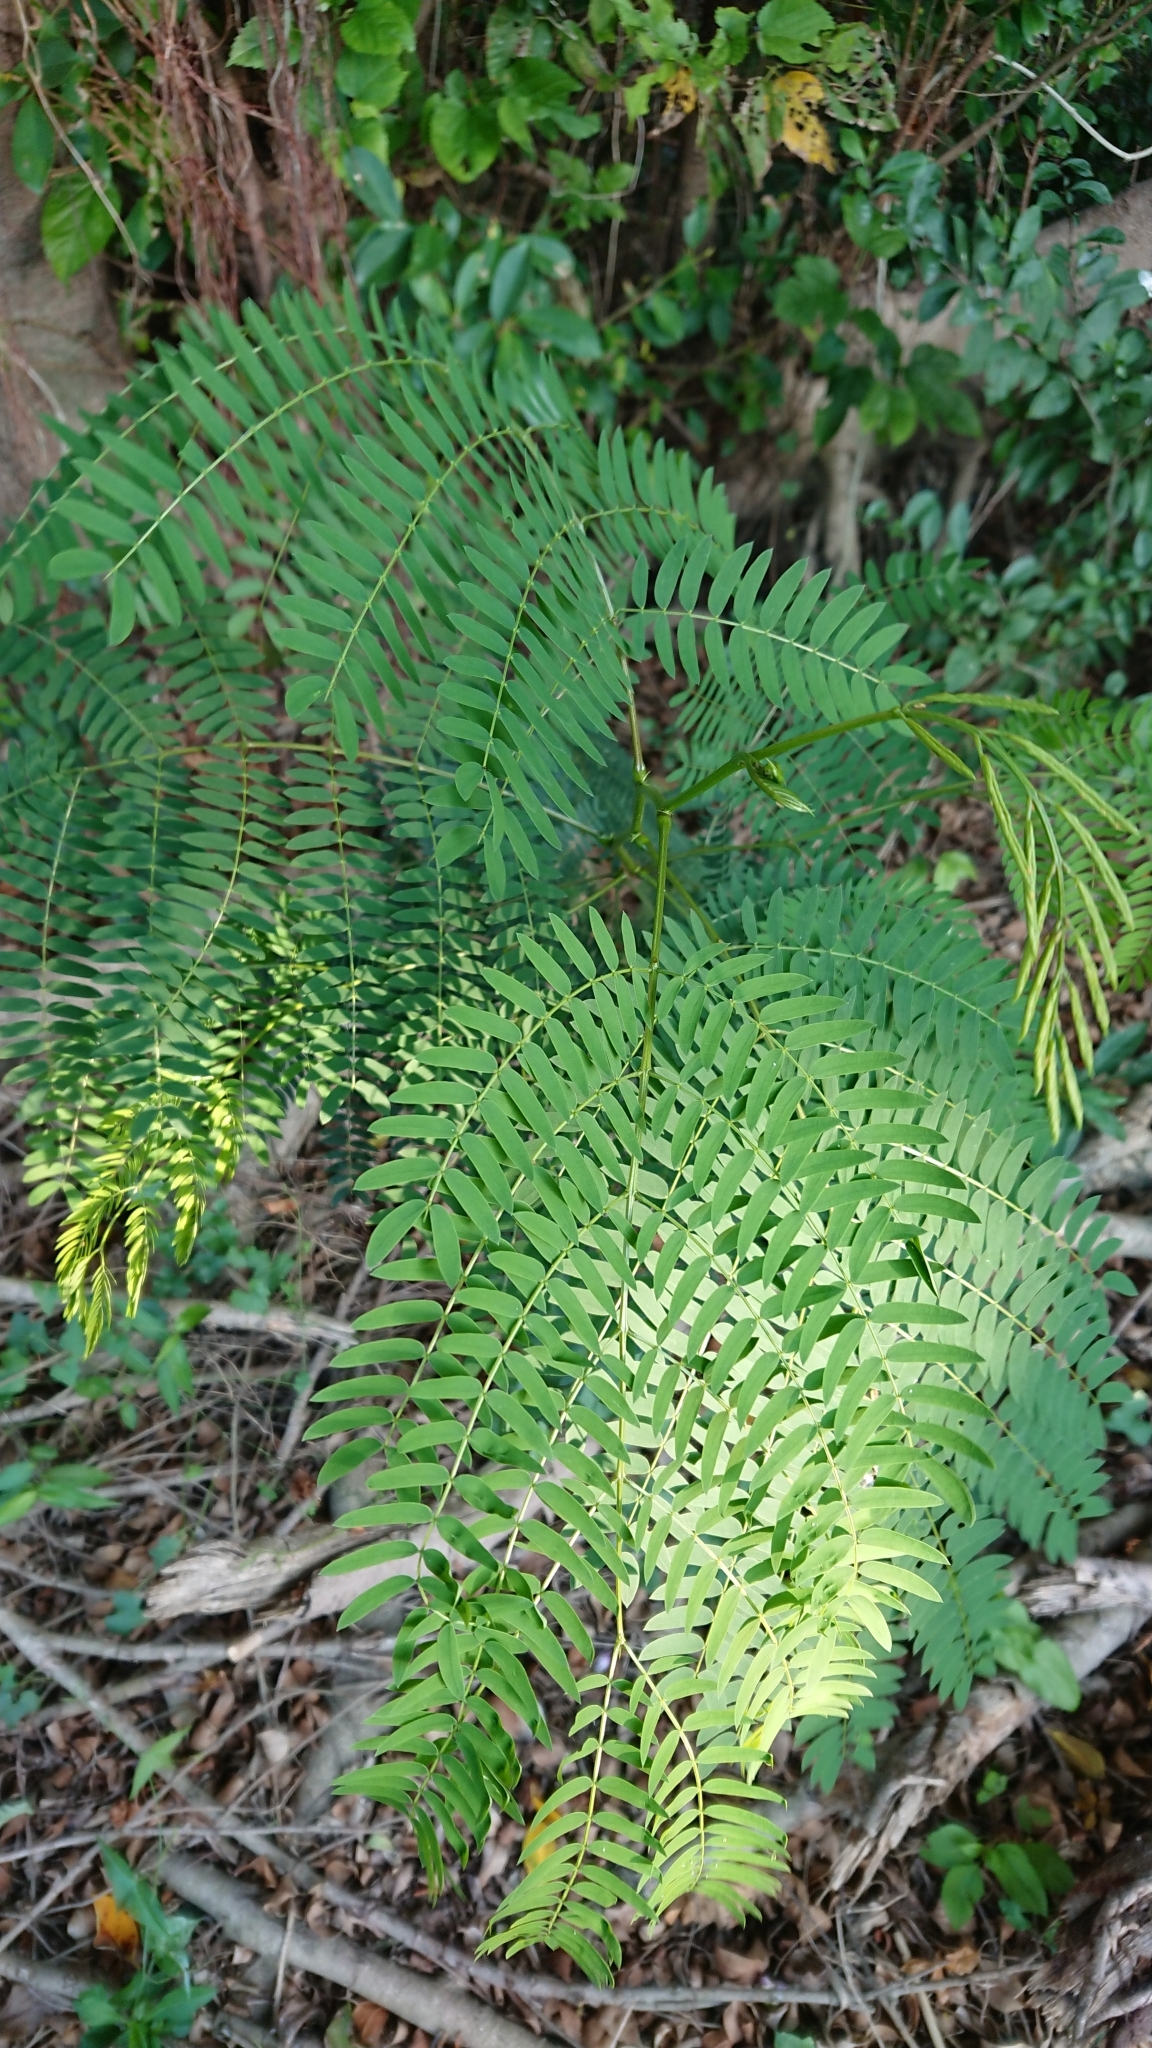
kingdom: Plantae
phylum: Tracheophyta
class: Magnoliopsida
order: Fabales
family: Fabaceae
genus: Leucaena
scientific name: Leucaena leucocephala
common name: White leadtree
